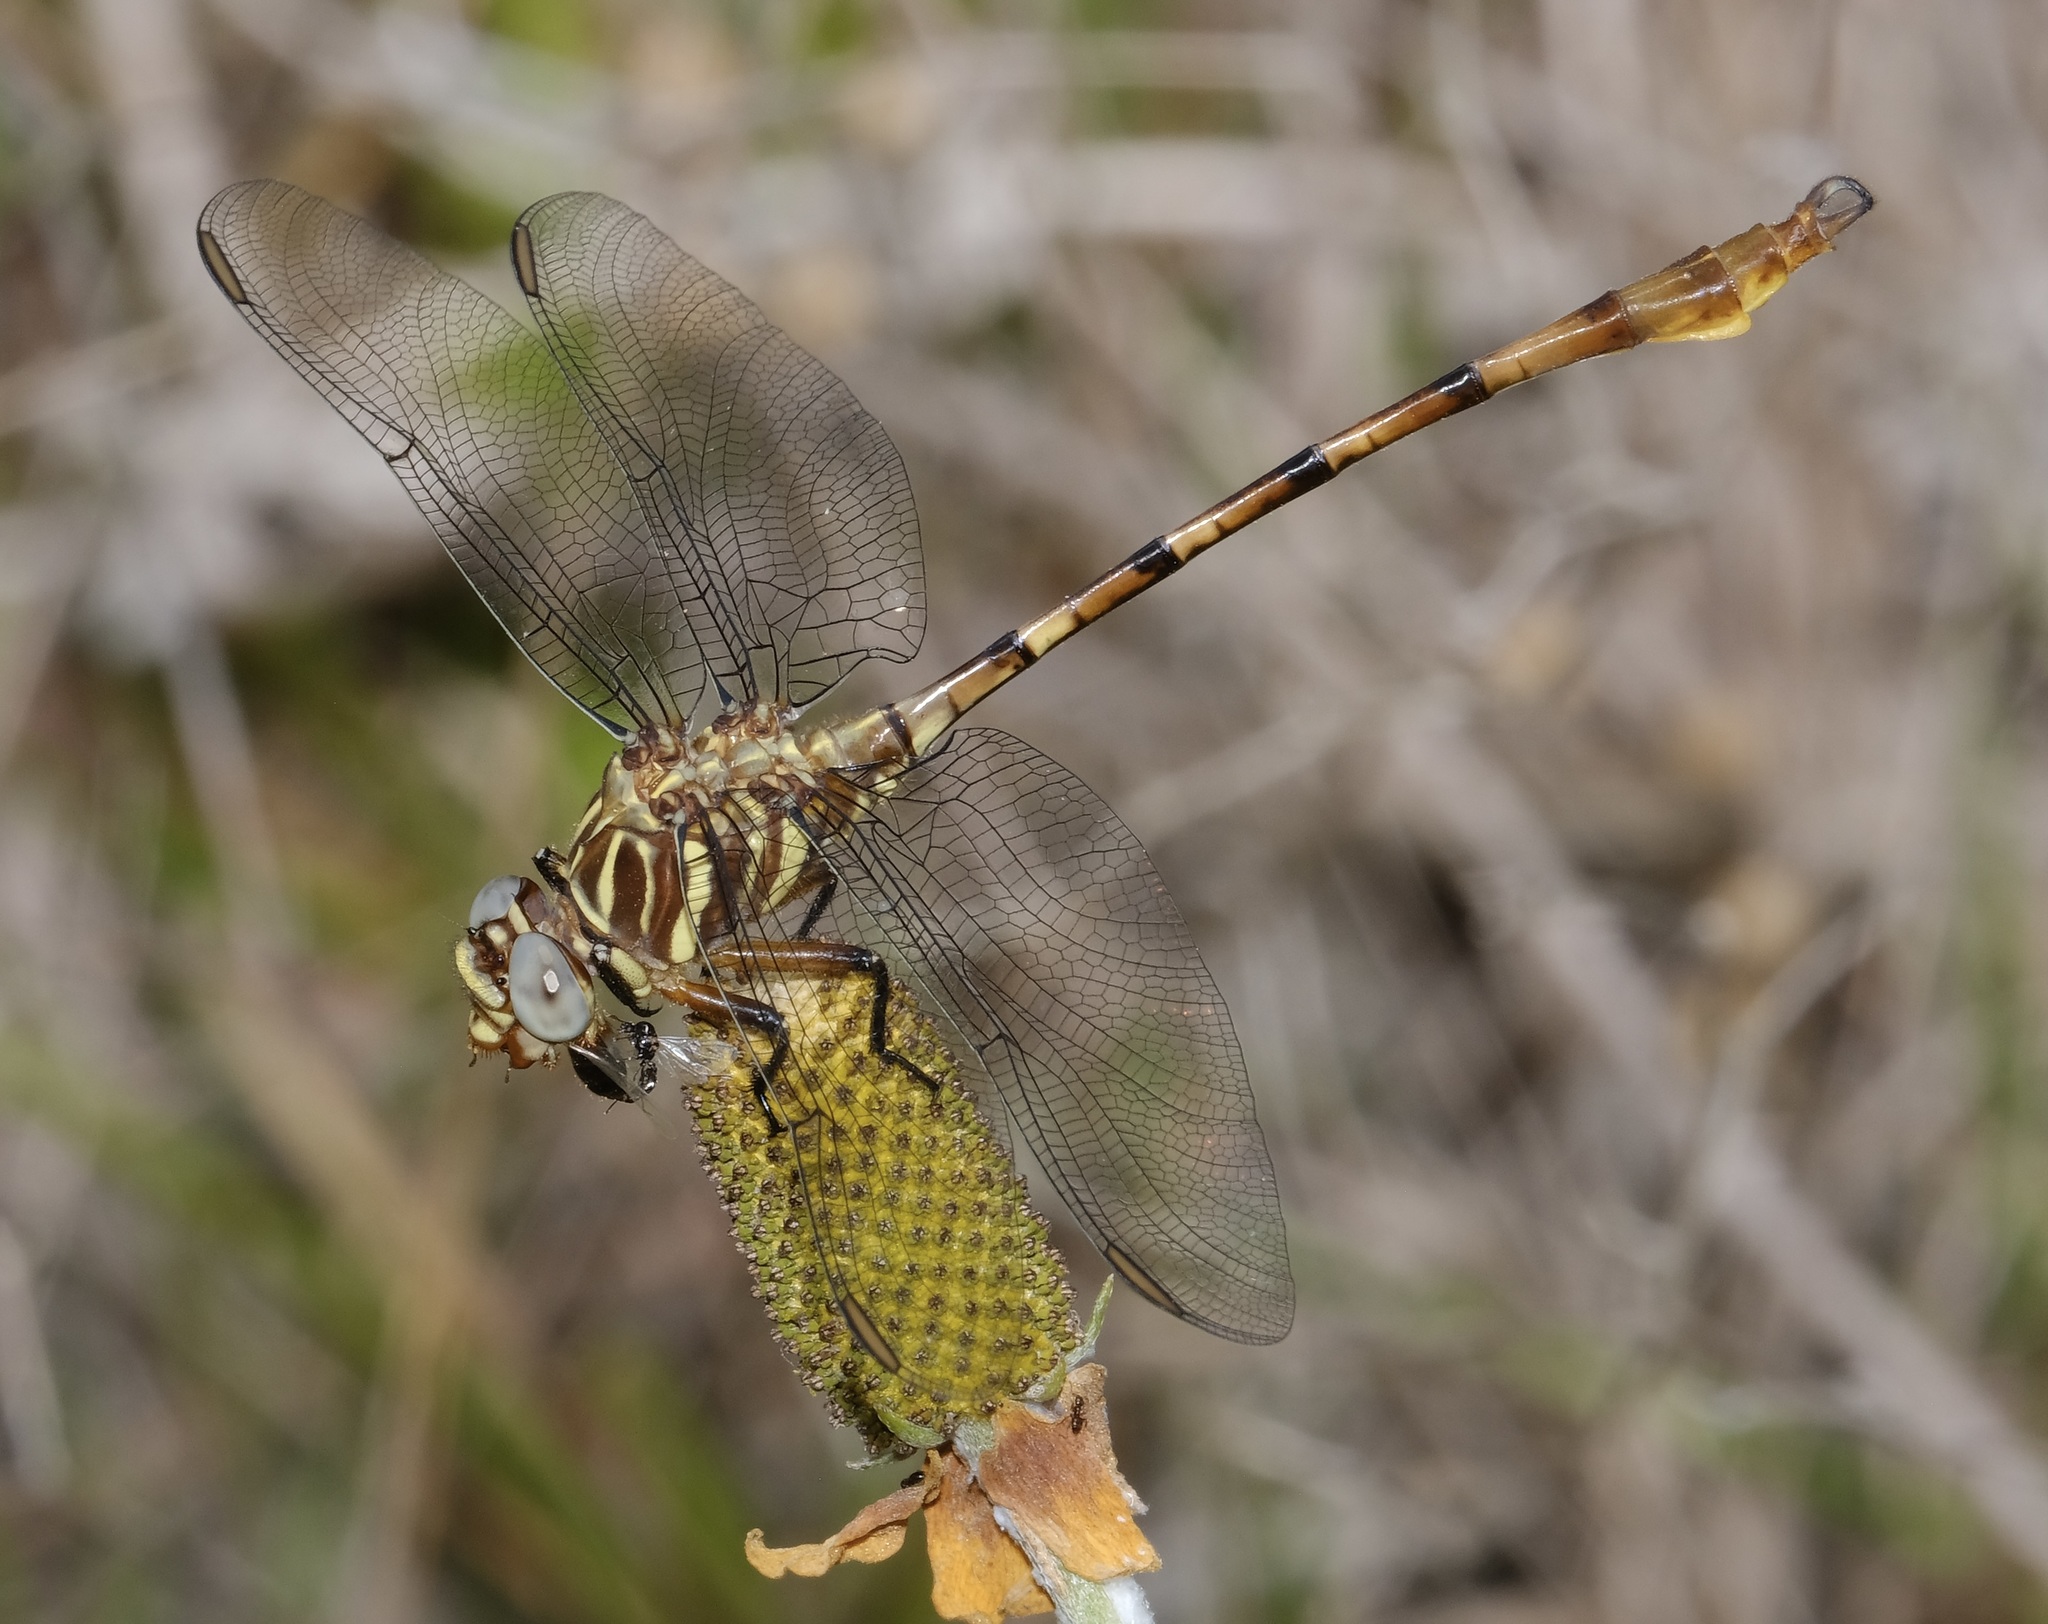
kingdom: Animalia
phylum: Arthropoda
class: Insecta
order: Odonata
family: Gomphidae
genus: Aphylla
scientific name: Aphylla angustifolia
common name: Broad-striped forceptail
